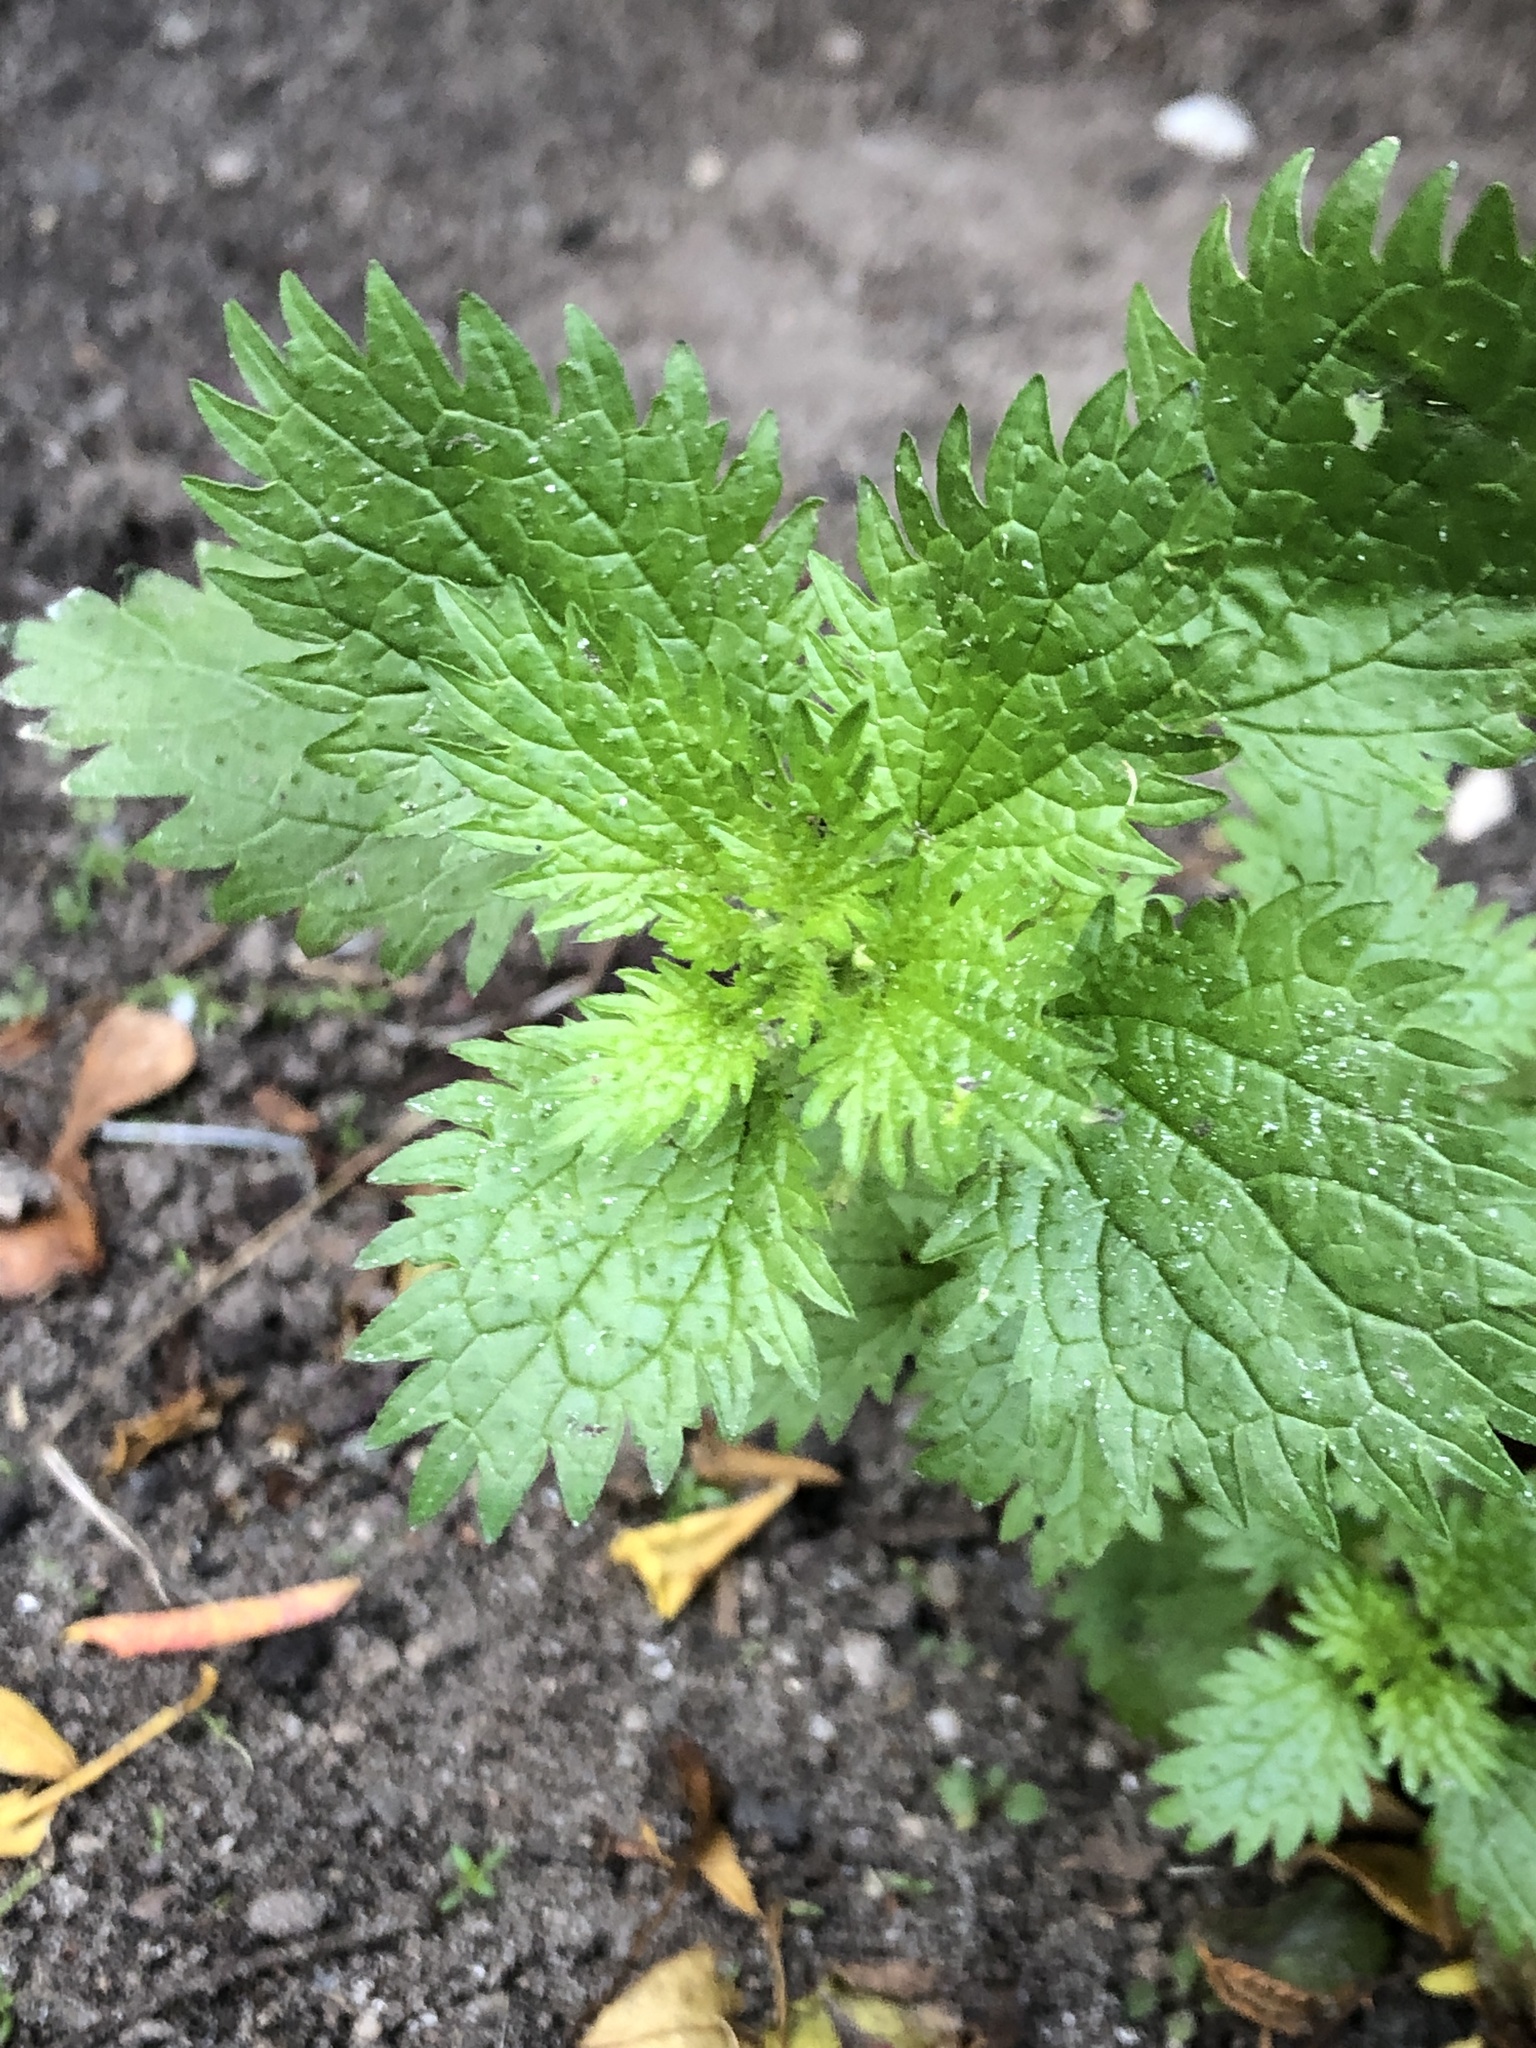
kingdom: Plantae
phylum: Tracheophyta
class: Magnoliopsida
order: Rosales
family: Urticaceae
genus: Urtica
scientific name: Urtica urens
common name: Dwarf nettle
